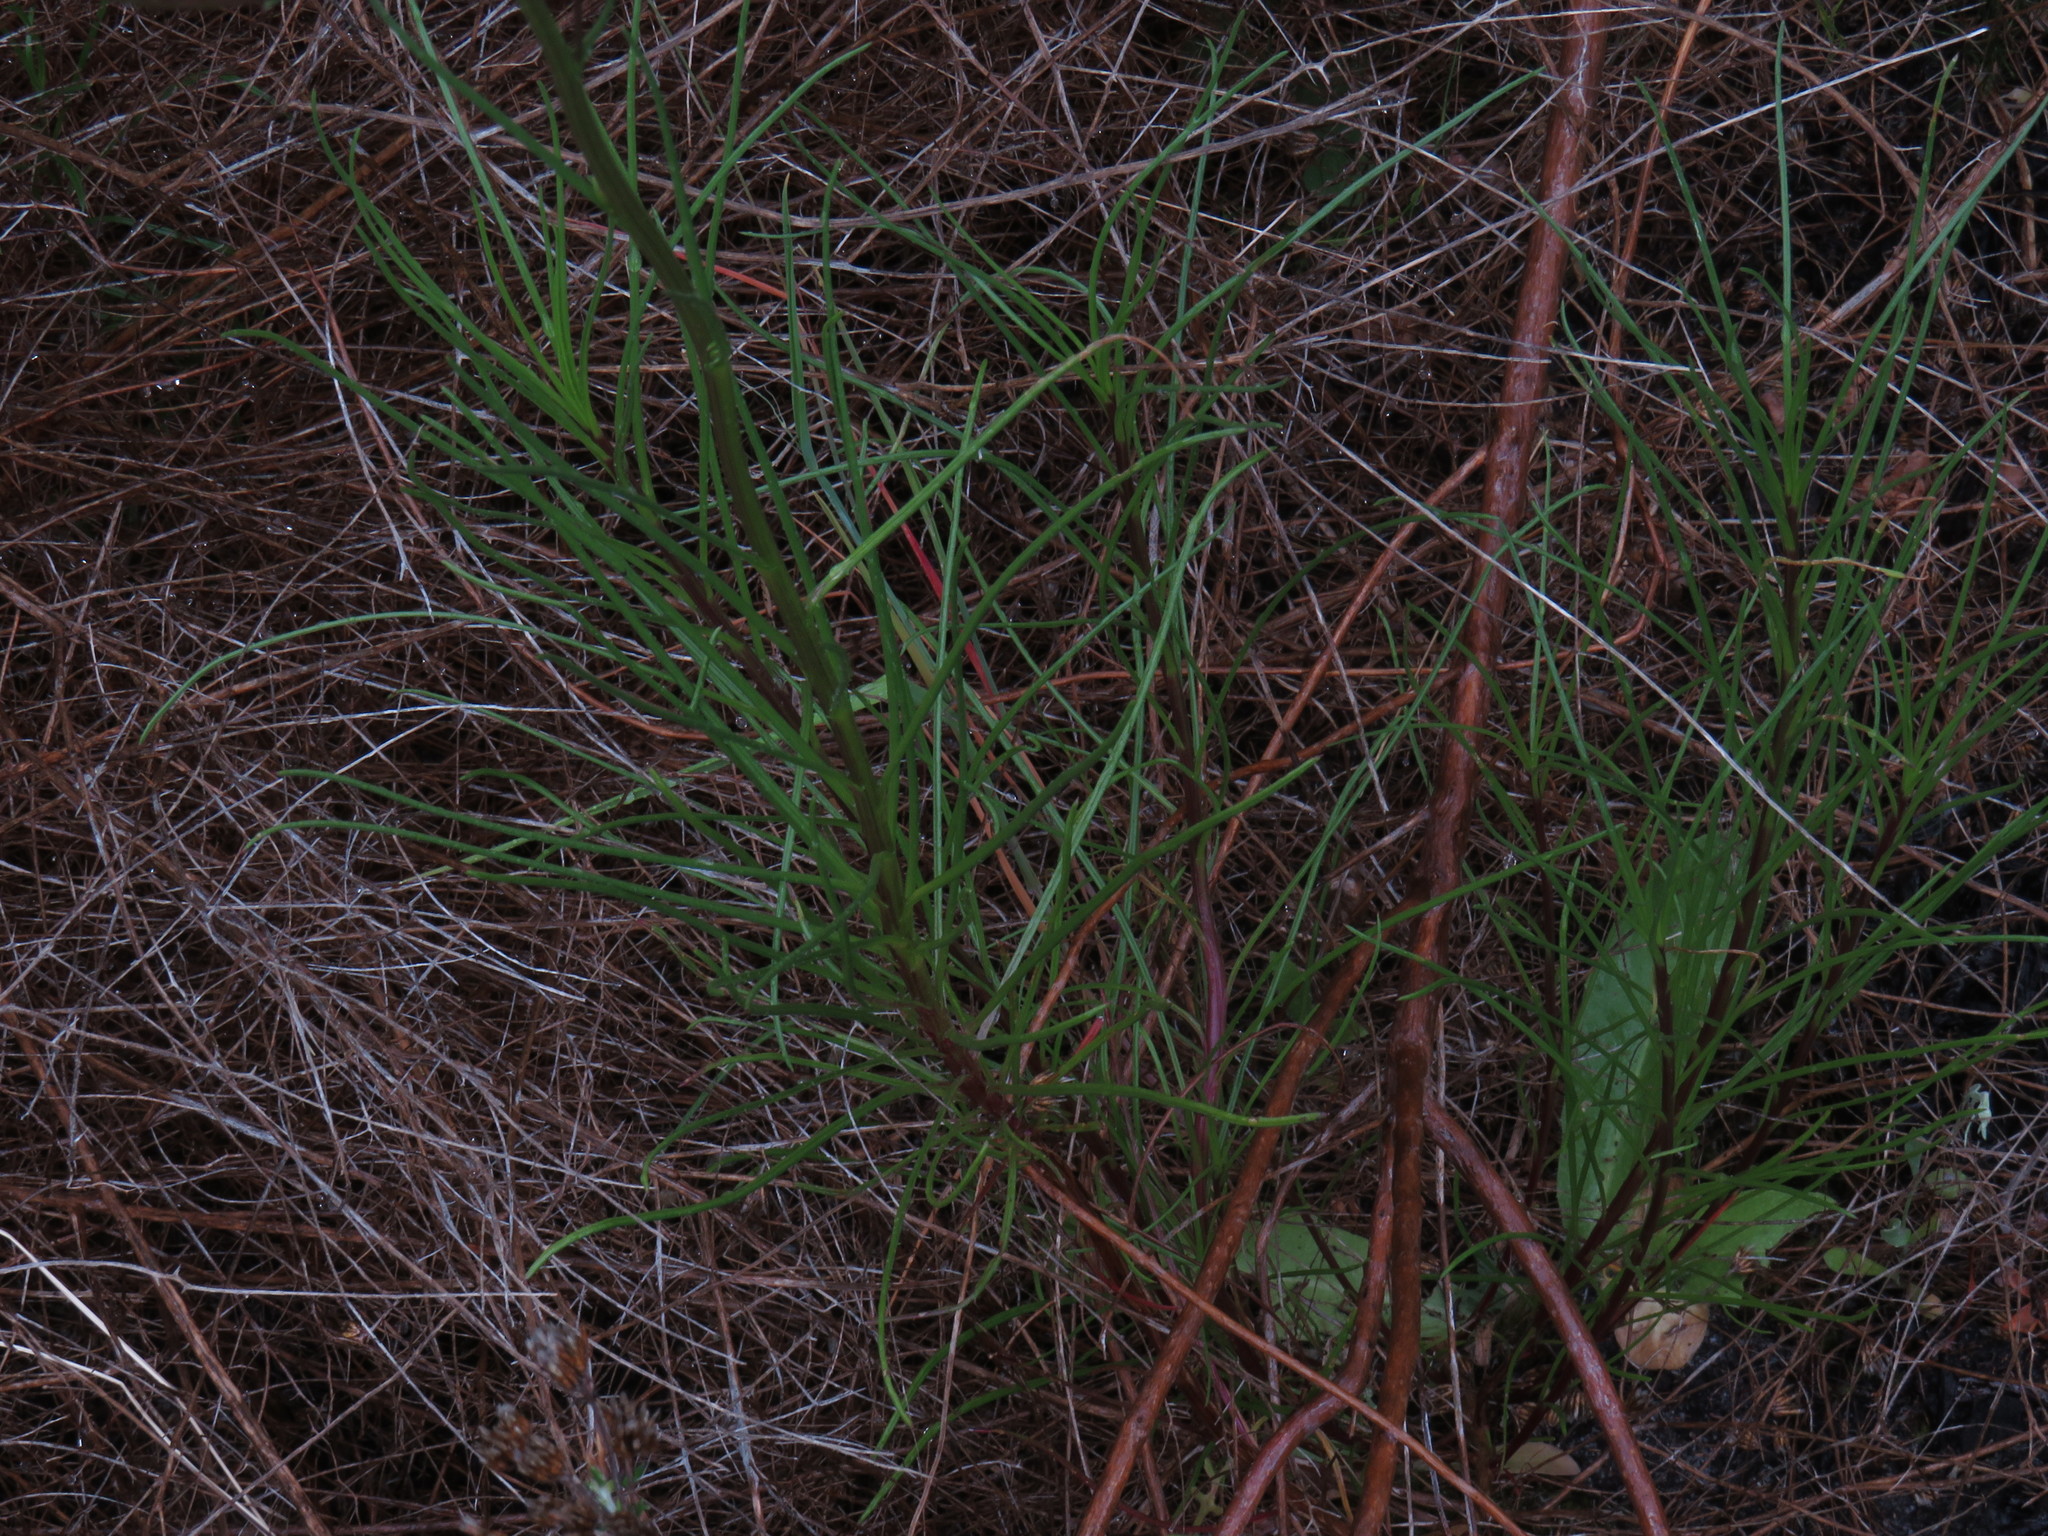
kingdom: Plantae
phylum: Tracheophyta
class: Magnoliopsida
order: Asterales
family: Asteraceae
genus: Senecio
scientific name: Senecio umbellatus
